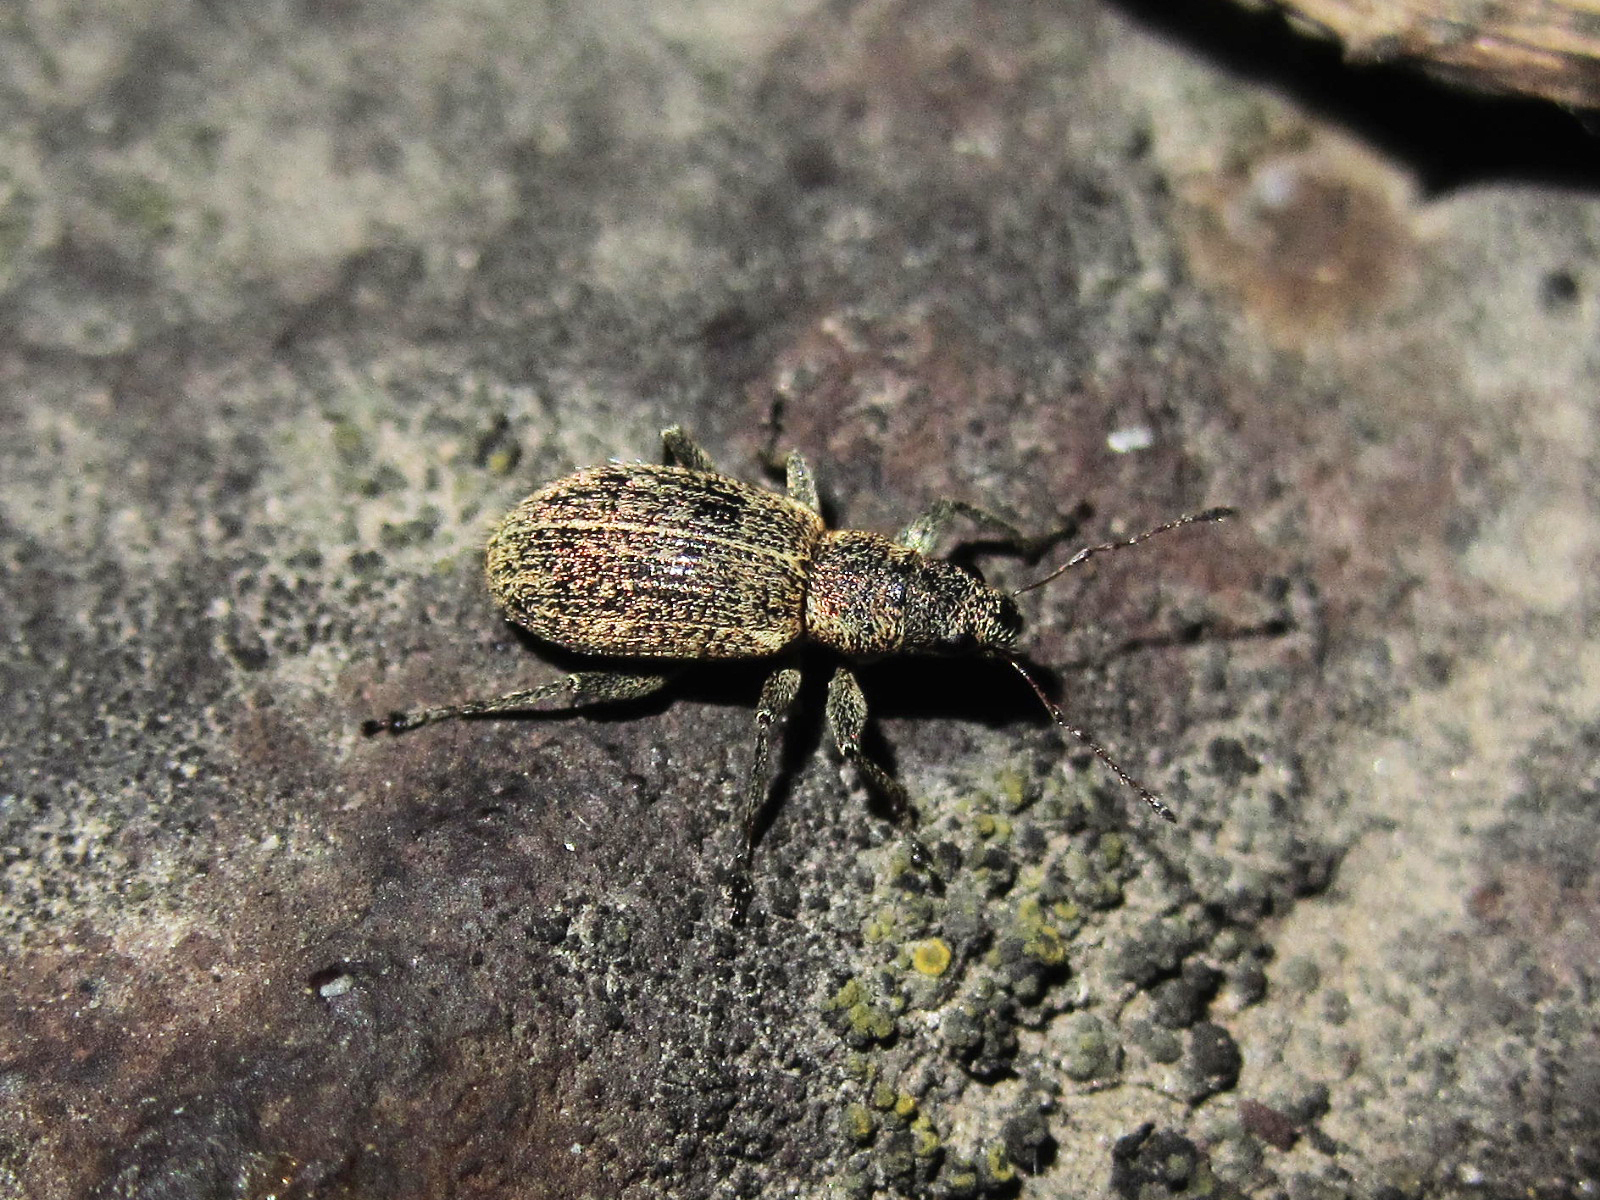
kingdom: Animalia
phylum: Arthropoda
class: Insecta
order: Coleoptera
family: Curculionidae
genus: Polydrusus
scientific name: Polydrusus inustus
